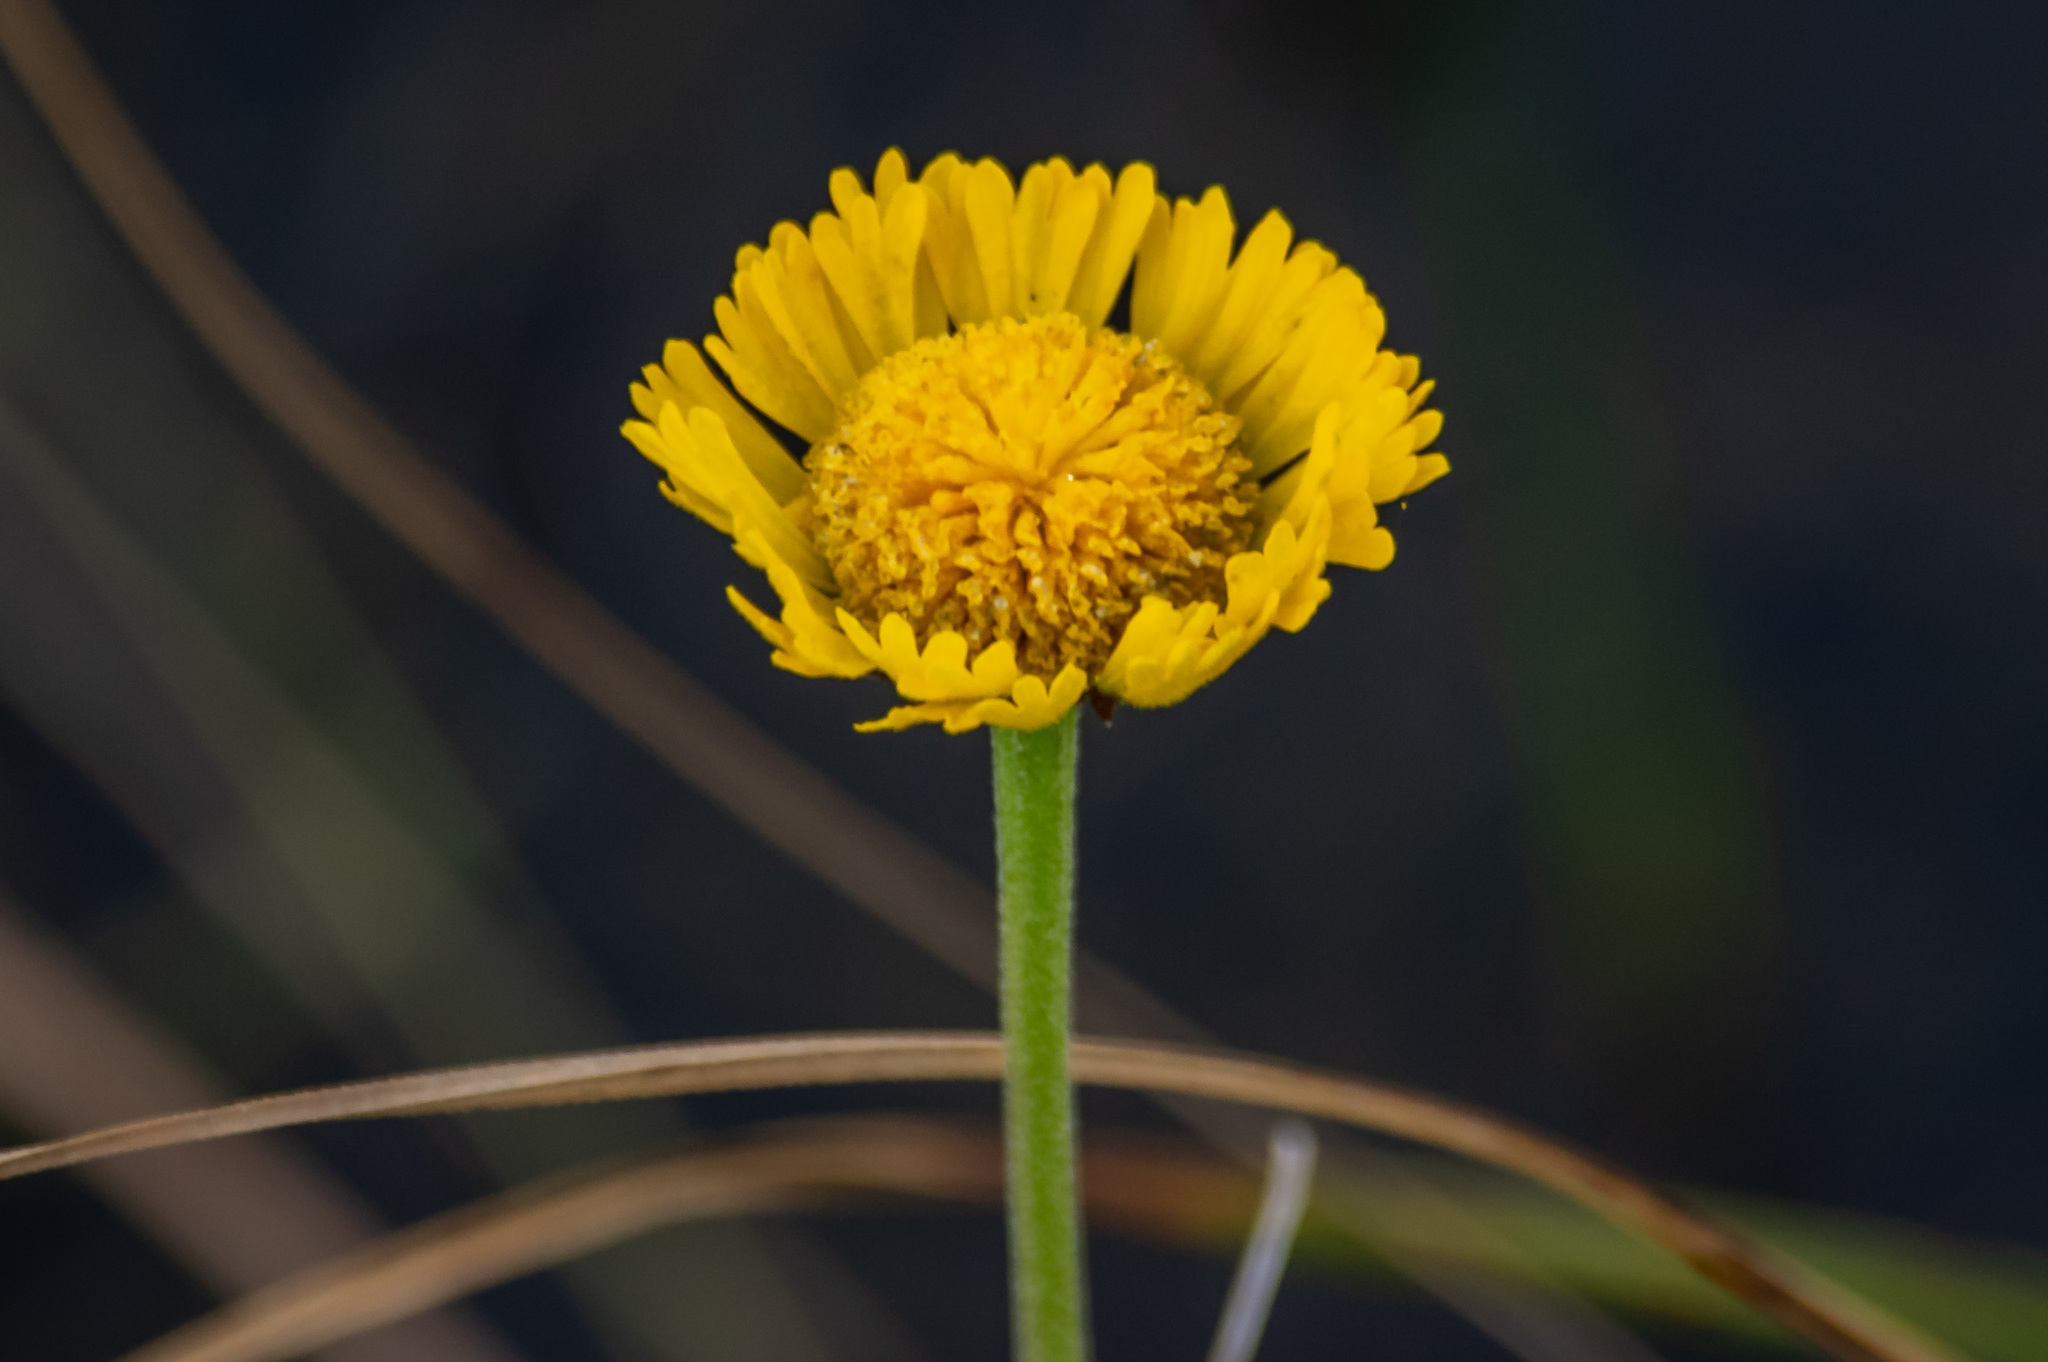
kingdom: Plantae
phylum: Tracheophyta
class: Magnoliopsida
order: Asterales
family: Asteraceae
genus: Helenium
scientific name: Helenium pinnatifidum
